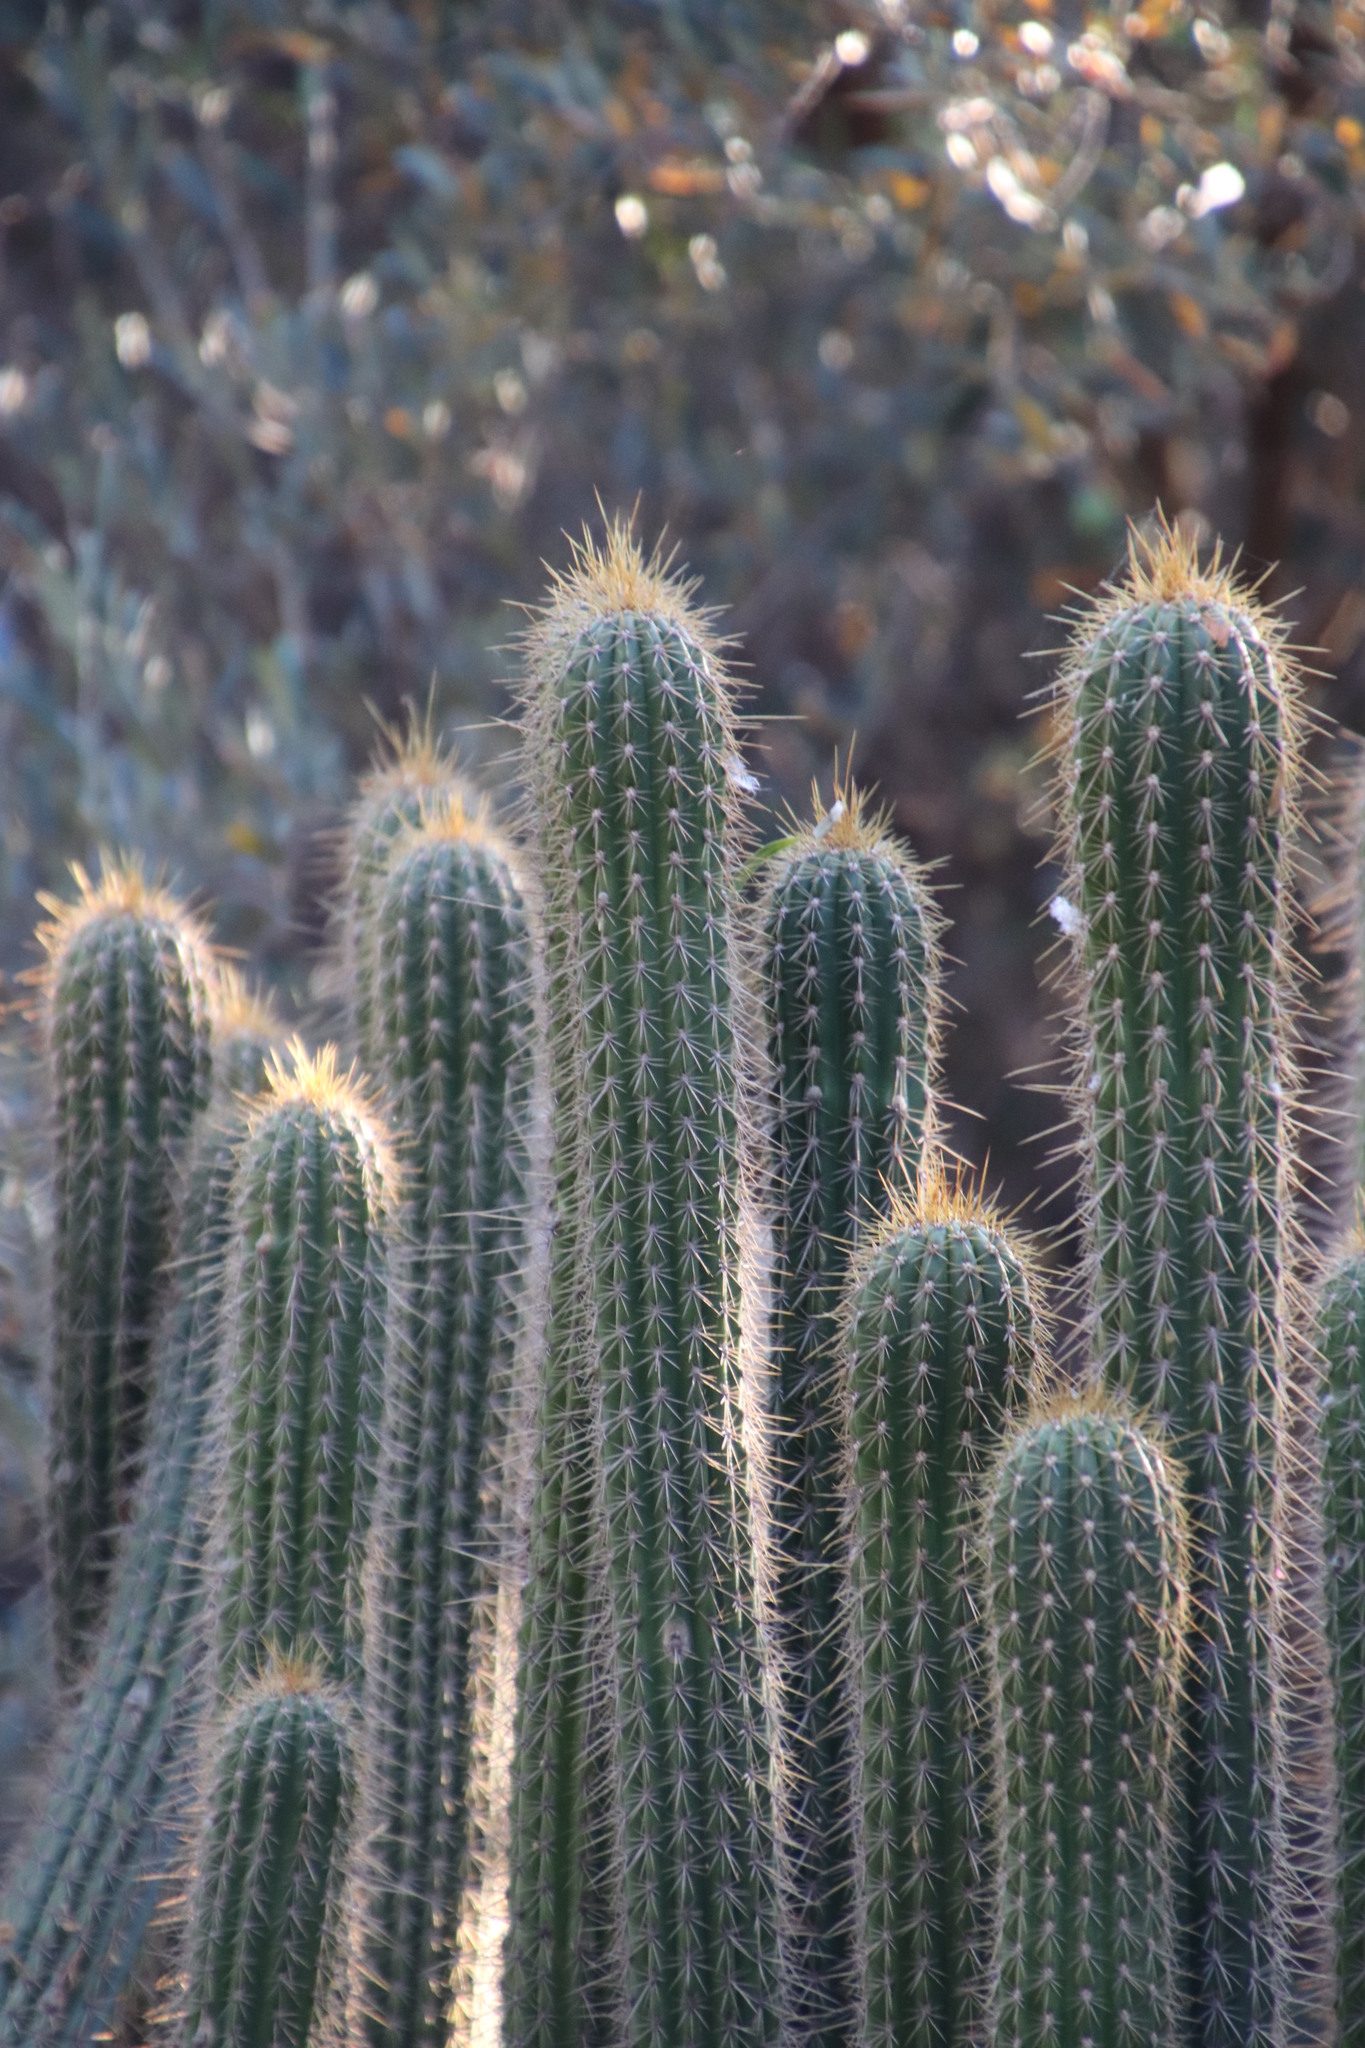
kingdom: Plantae
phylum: Tracheophyta
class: Magnoliopsida
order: Caryophyllales
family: Cactaceae
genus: Peniocereus
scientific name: Peniocereus serpentinus
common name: Serpent cactus
